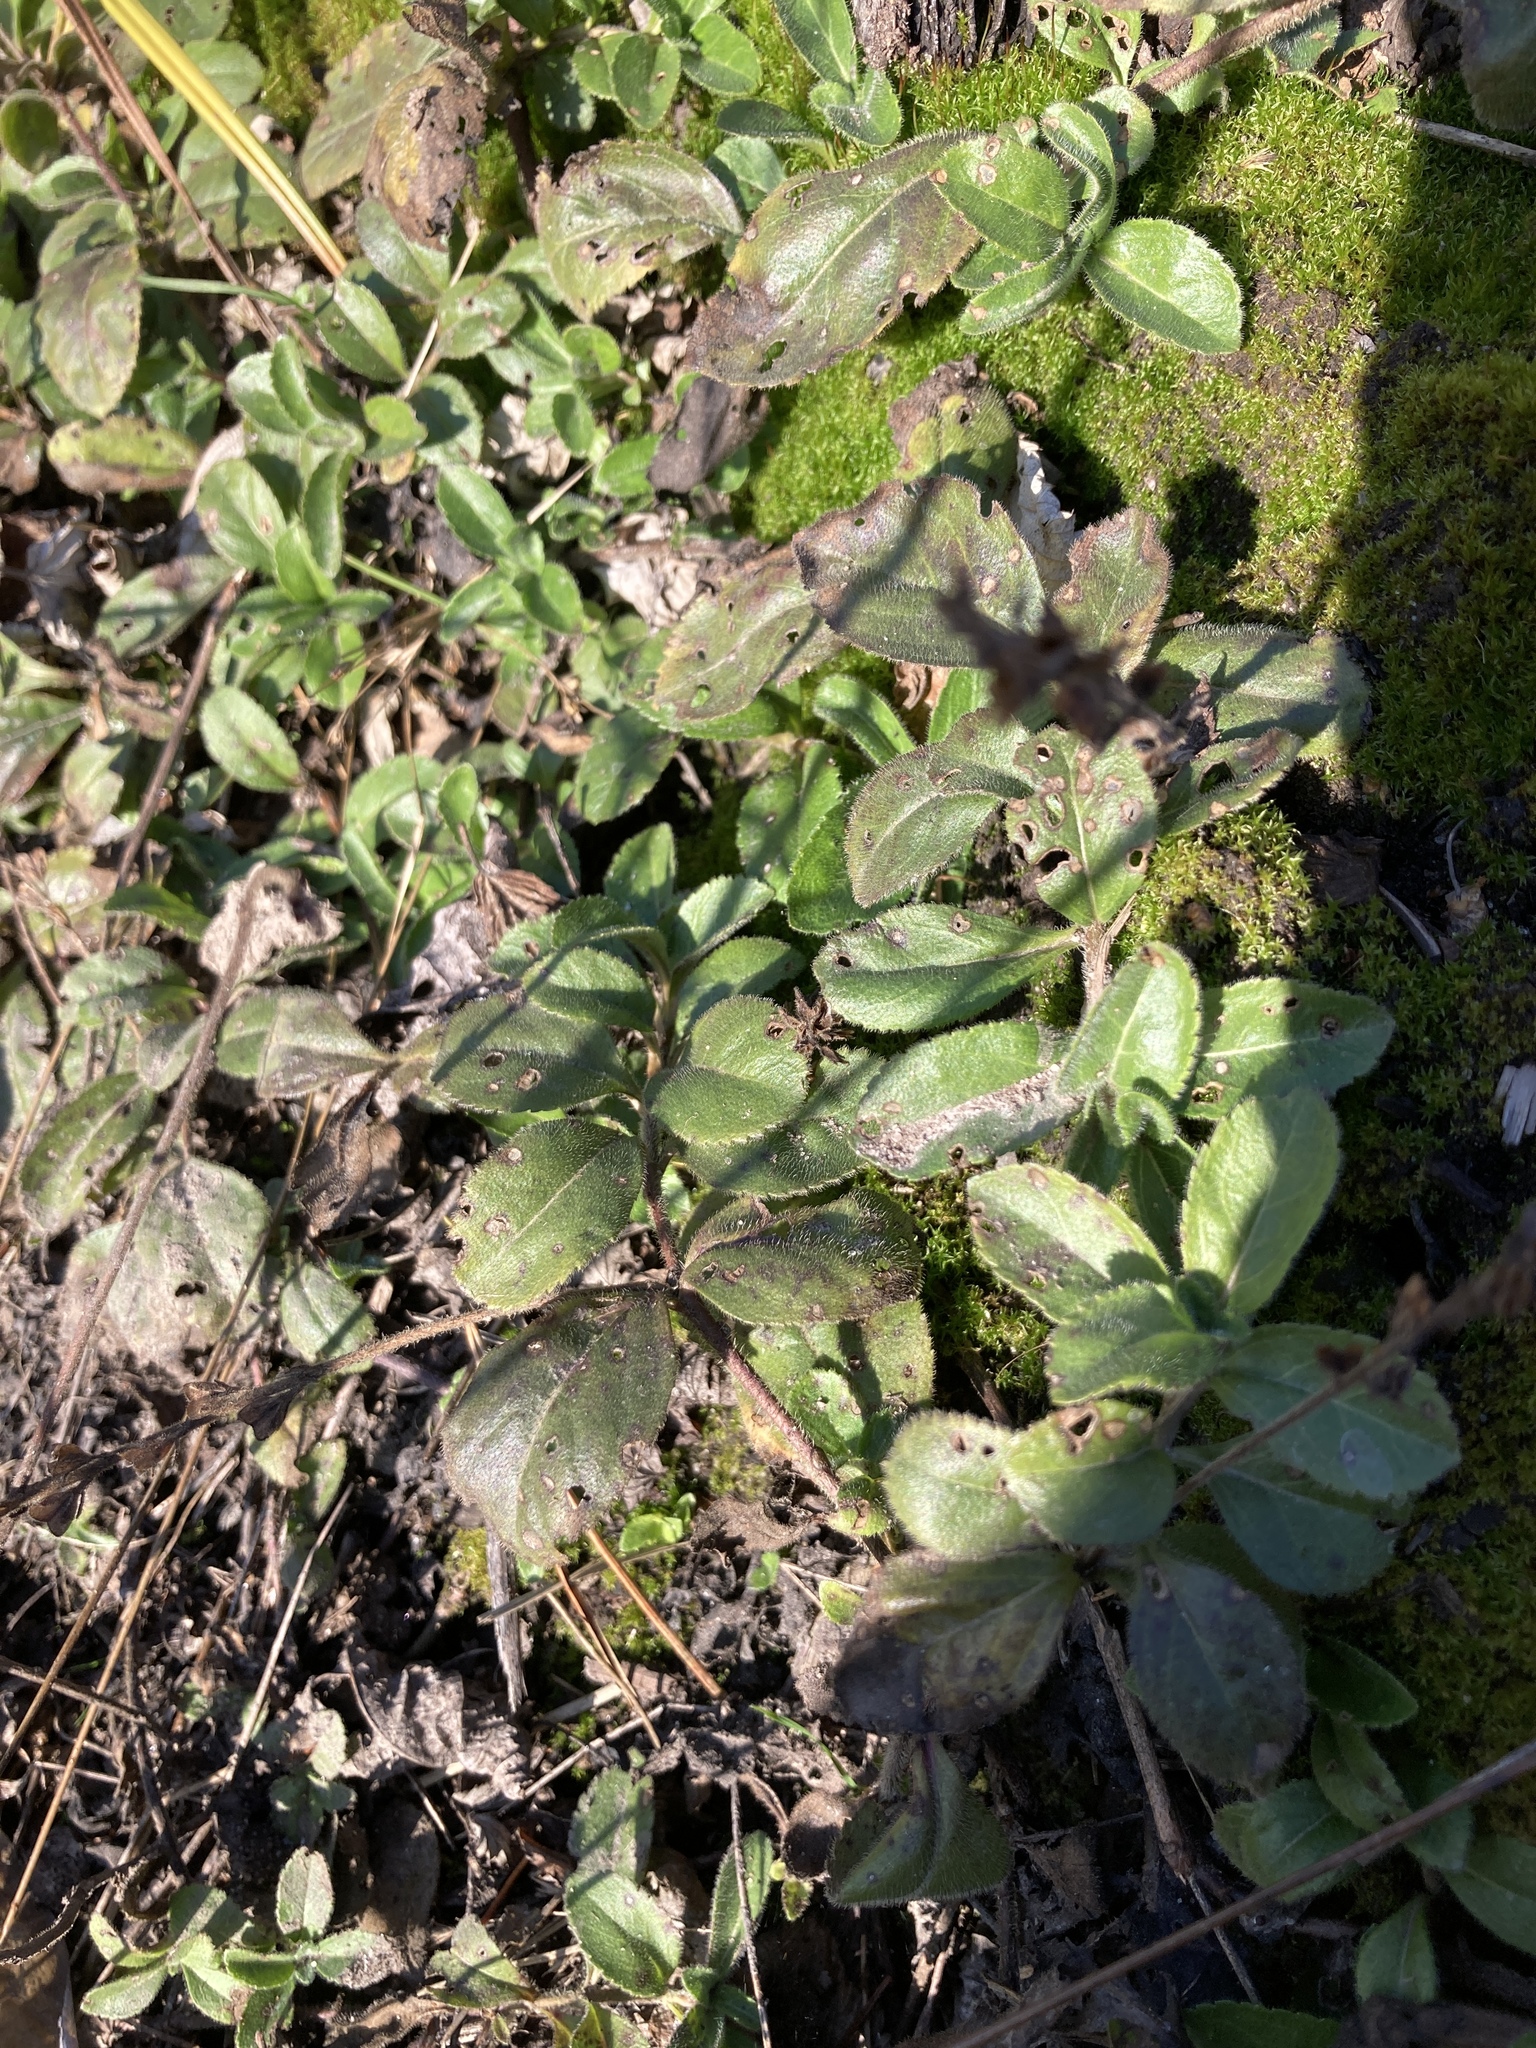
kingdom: Plantae
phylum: Tracheophyta
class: Magnoliopsida
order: Lamiales
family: Plantaginaceae
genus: Veronica
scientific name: Veronica officinalis
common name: Common speedwell
